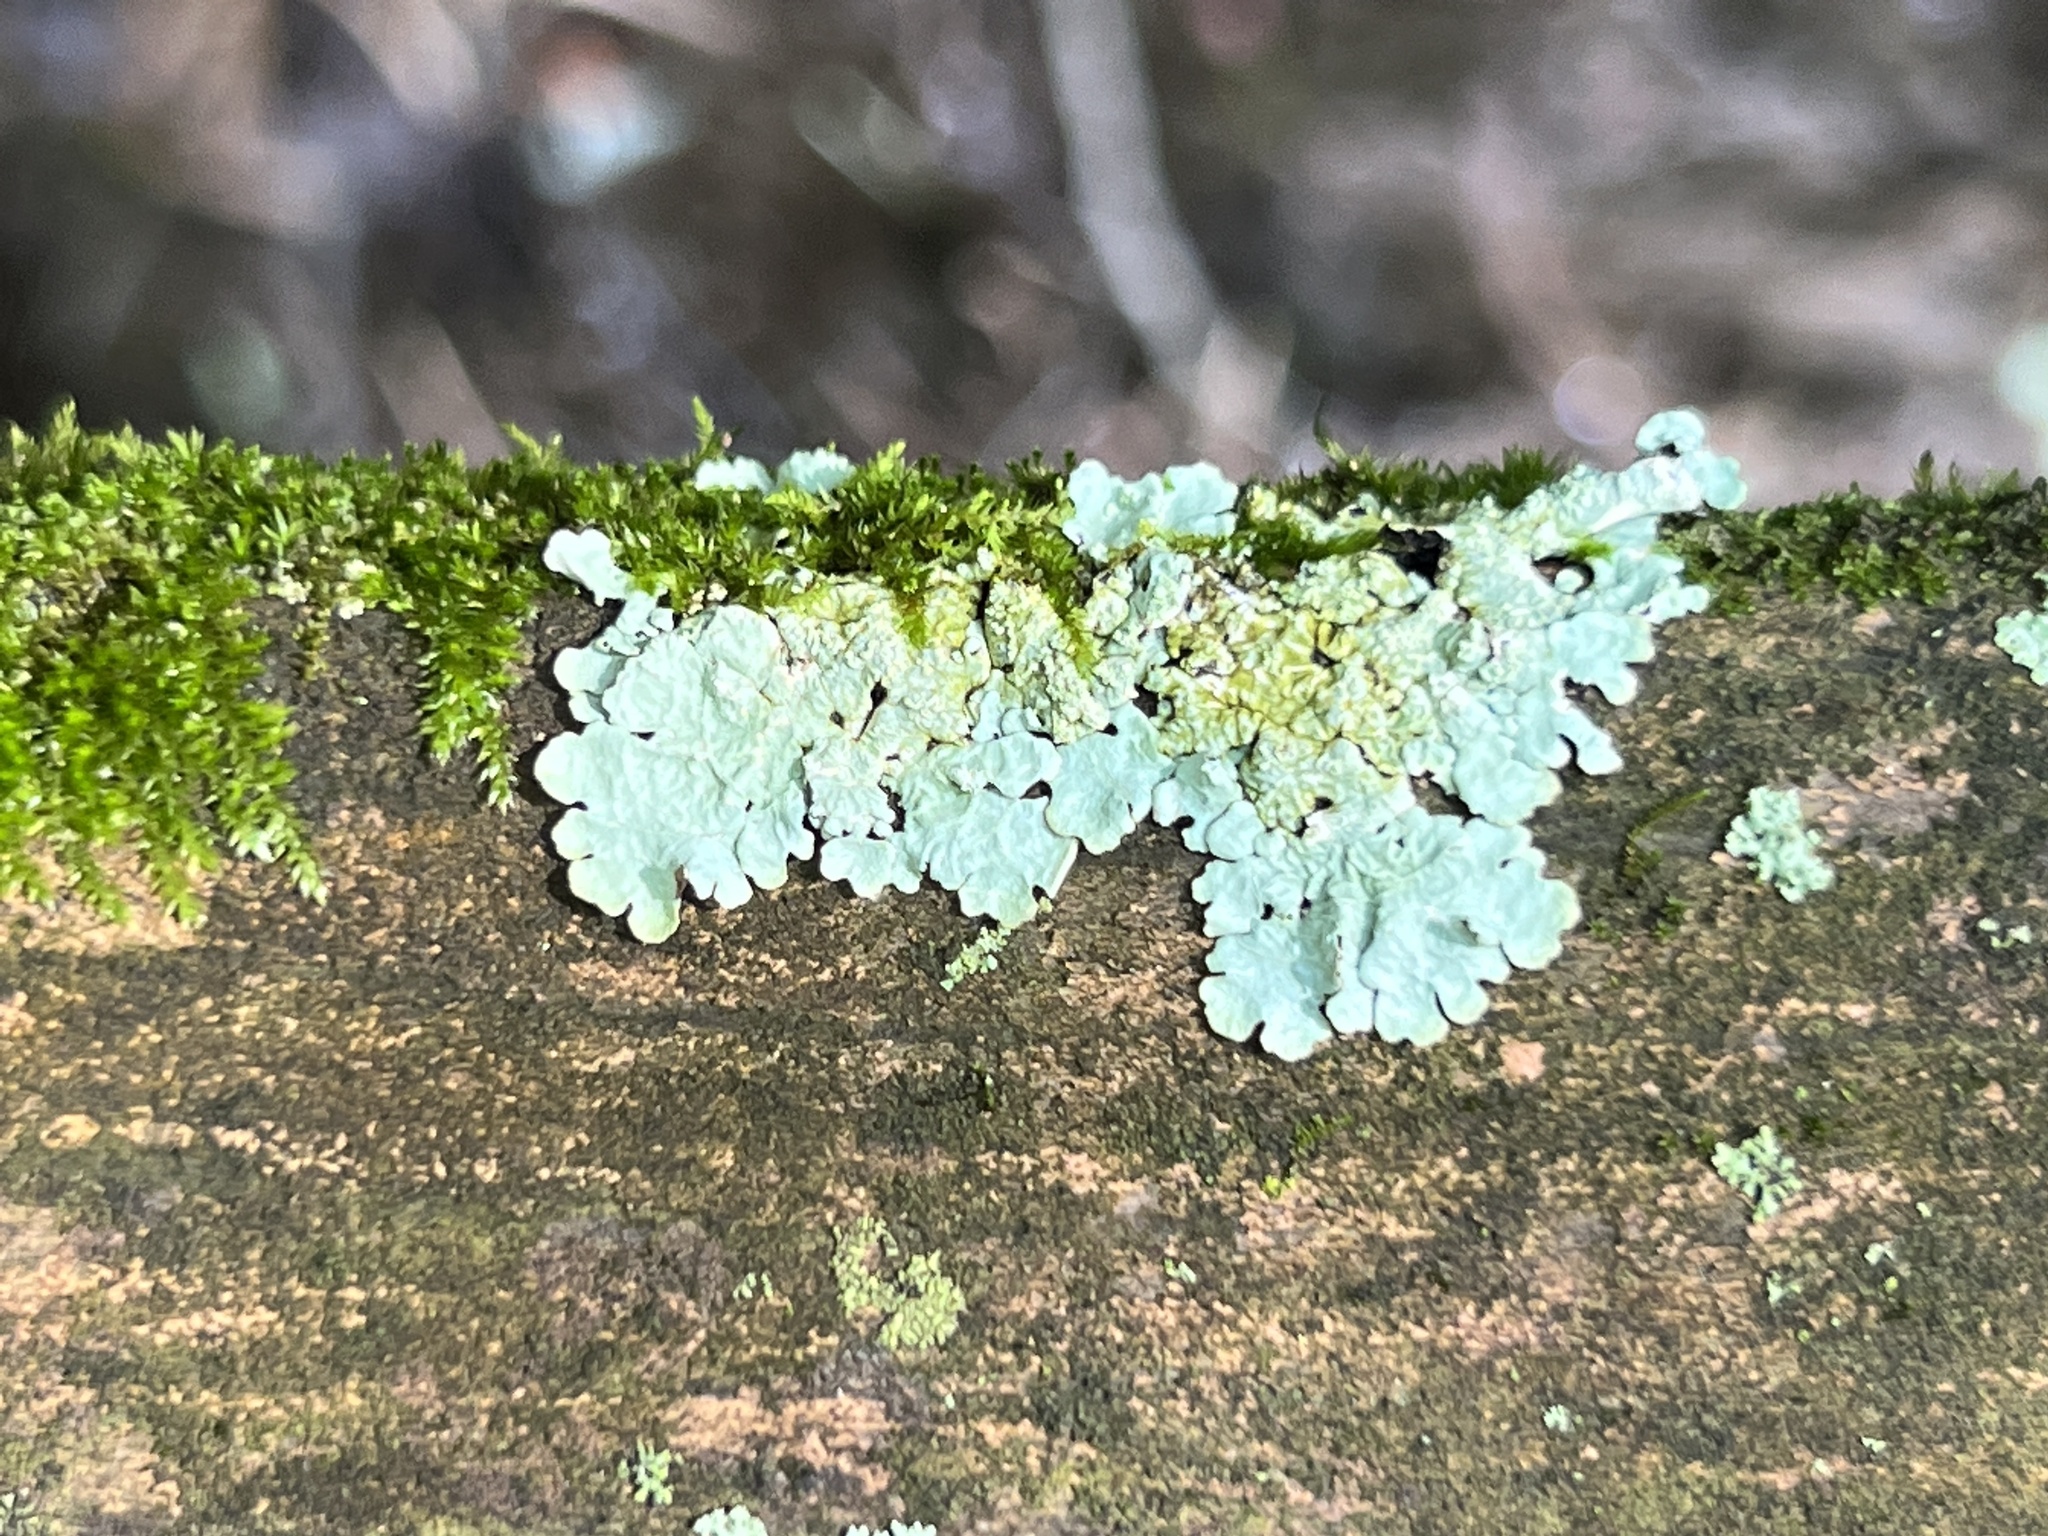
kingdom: Fungi
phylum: Ascomycota
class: Lecanoromycetes
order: Lecanorales
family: Parmeliaceae
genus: Flavoparmelia
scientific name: Flavoparmelia caperata
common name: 40-mile per hour lichen
